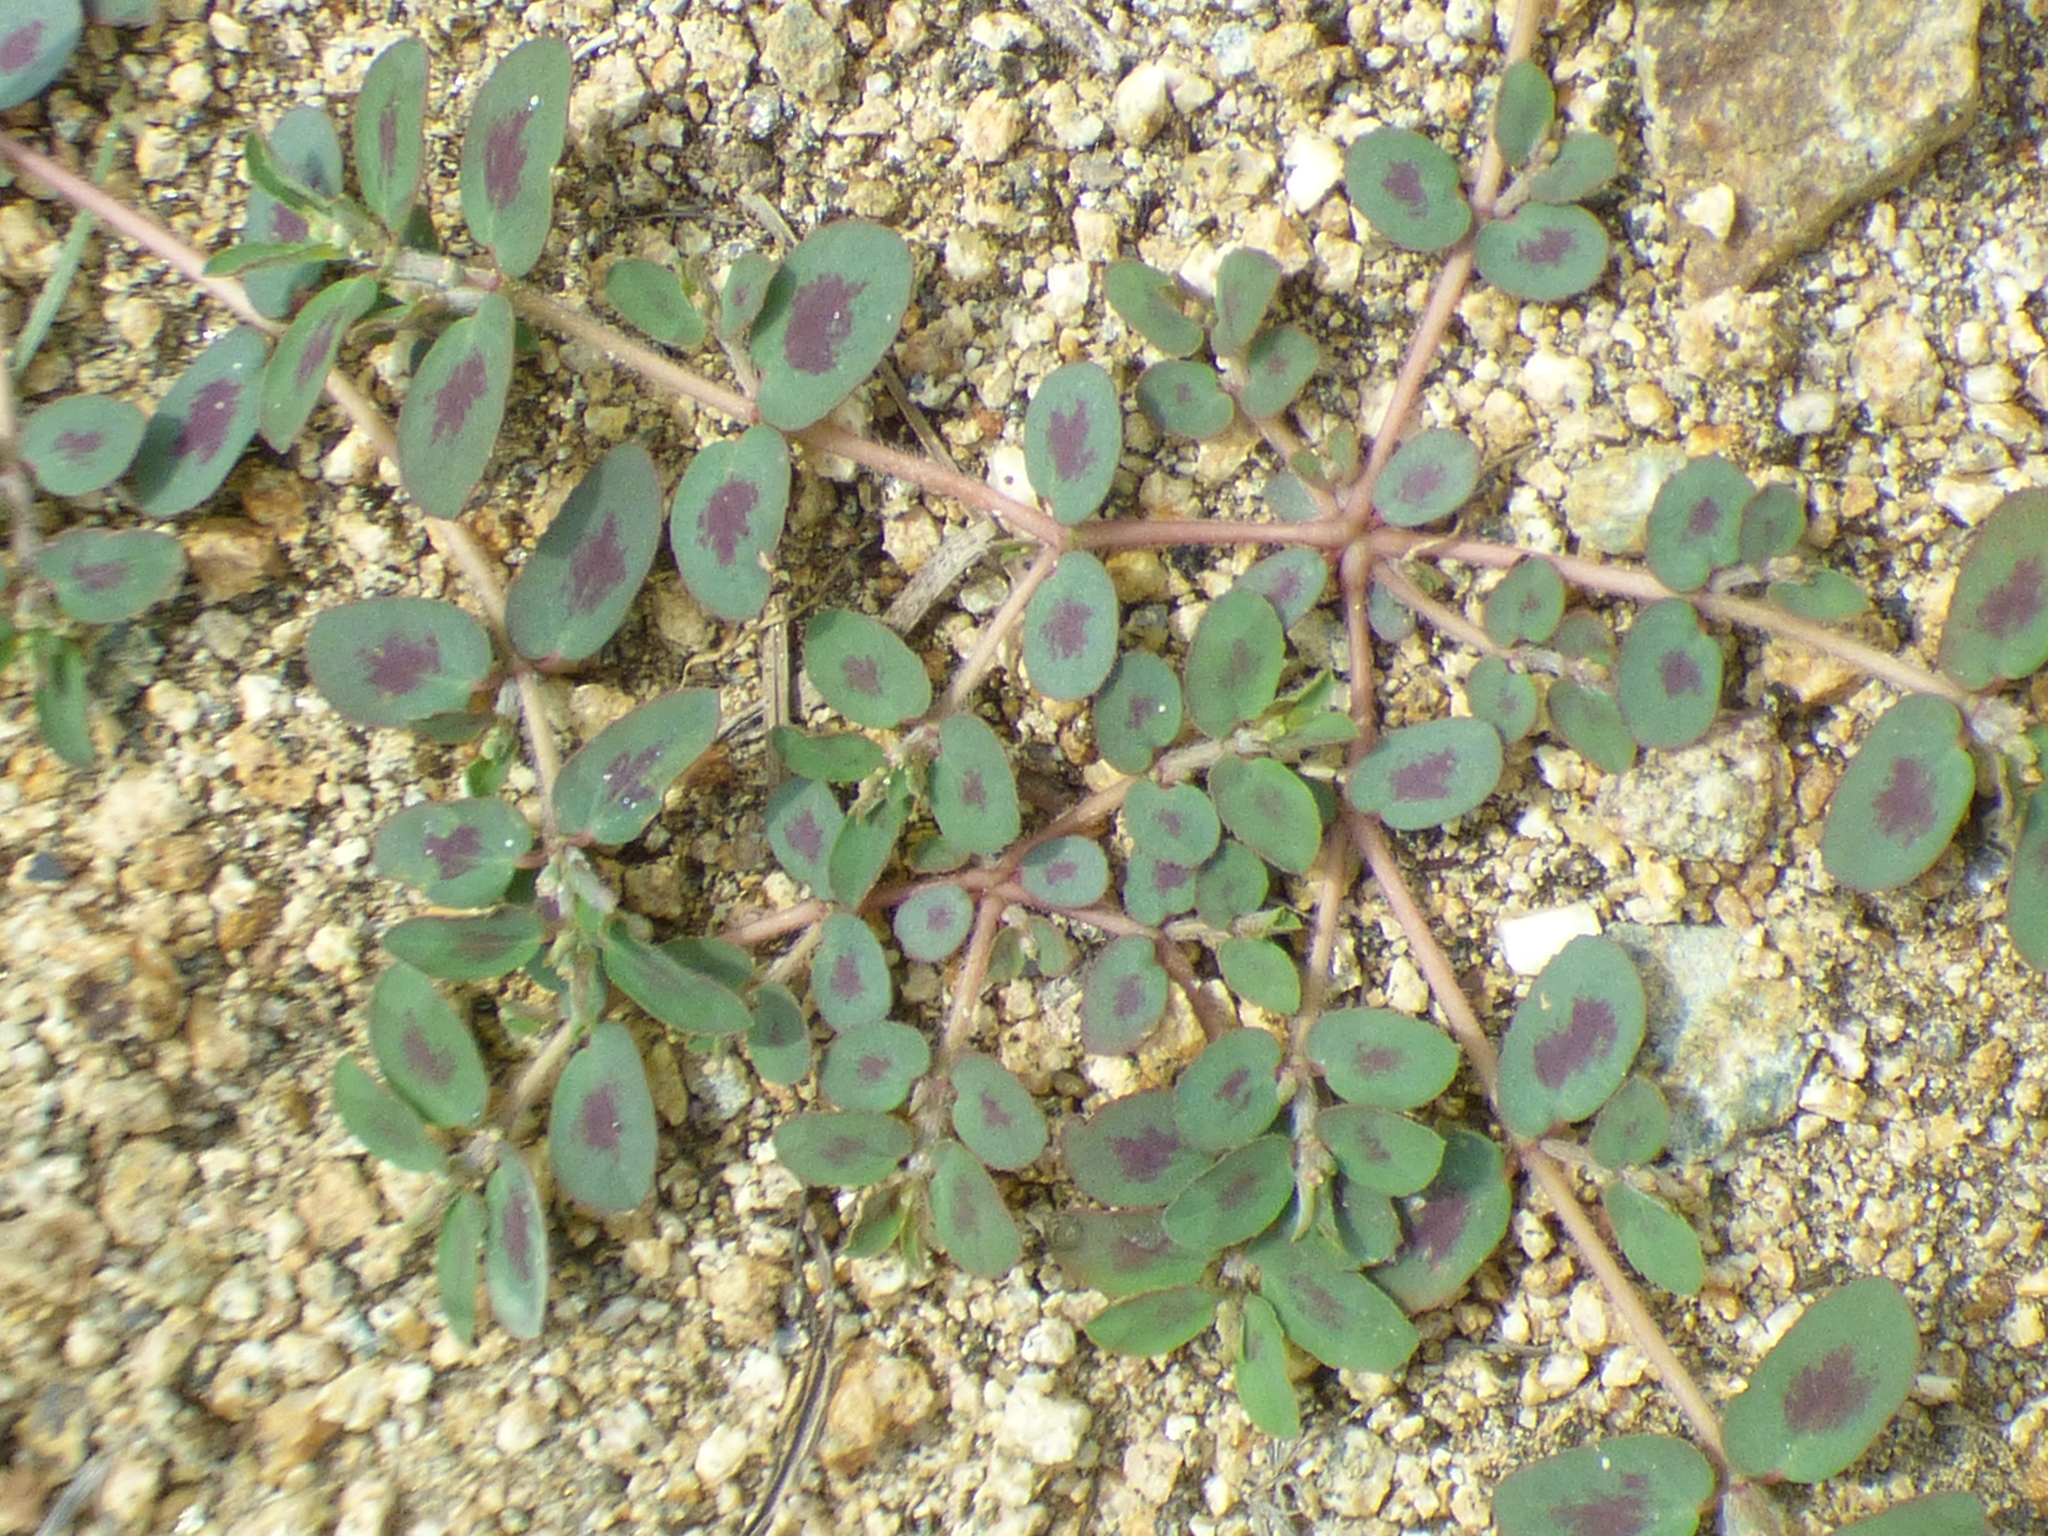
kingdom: Plantae
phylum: Tracheophyta
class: Magnoliopsida
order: Malpighiales
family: Euphorbiaceae
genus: Euphorbia
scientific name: Euphorbia maculata
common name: Spotted spurge
